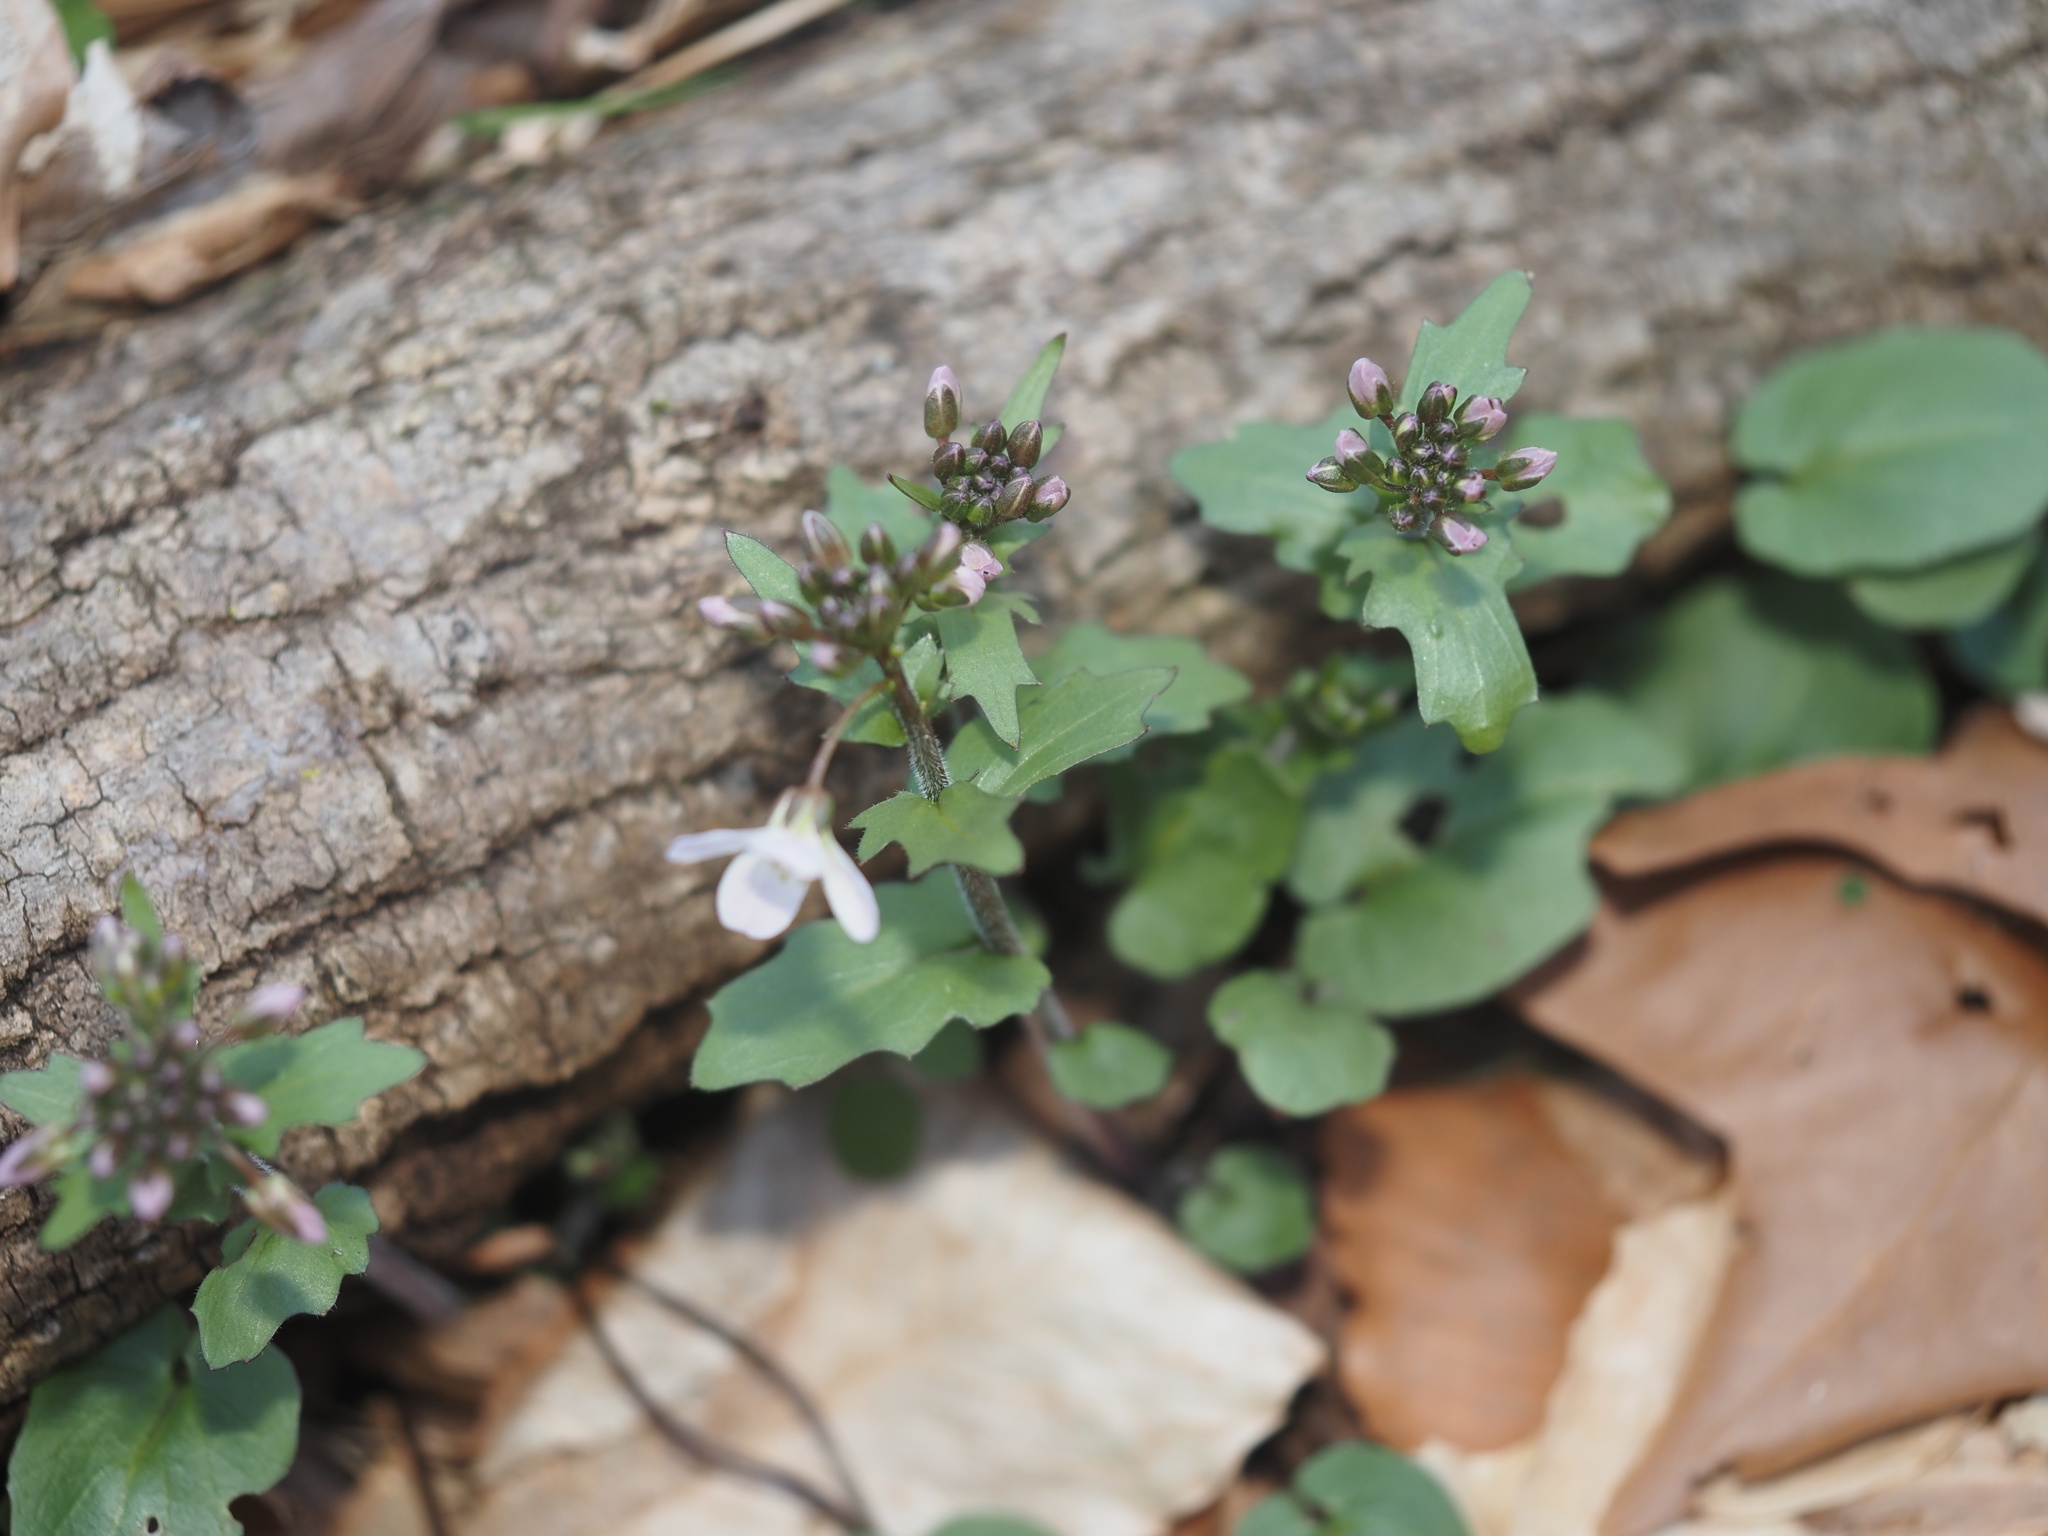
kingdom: Plantae
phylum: Tracheophyta
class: Magnoliopsida
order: Brassicales
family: Brassicaceae
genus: Cardamine
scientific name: Cardamine douglassii
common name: Purple cress
